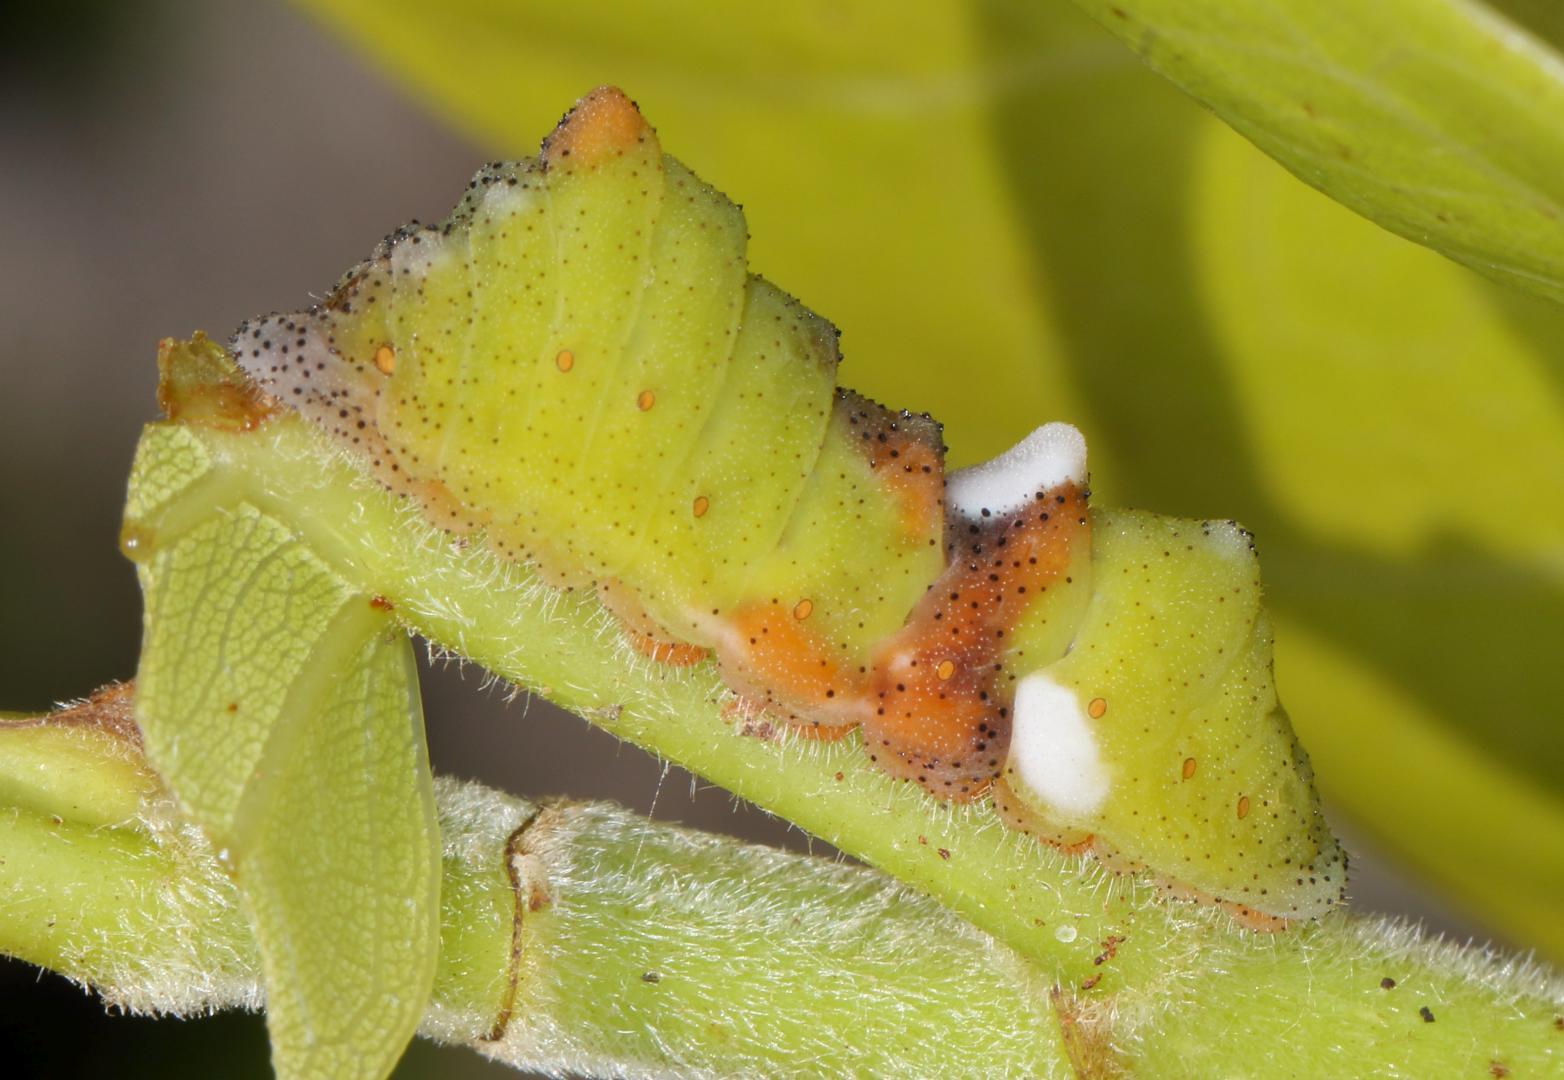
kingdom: Animalia
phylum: Arthropoda
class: Insecta
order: Lepidoptera
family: Lycaenidae
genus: Myrina
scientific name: Myrina silenus
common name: Amber fig-tree blue
